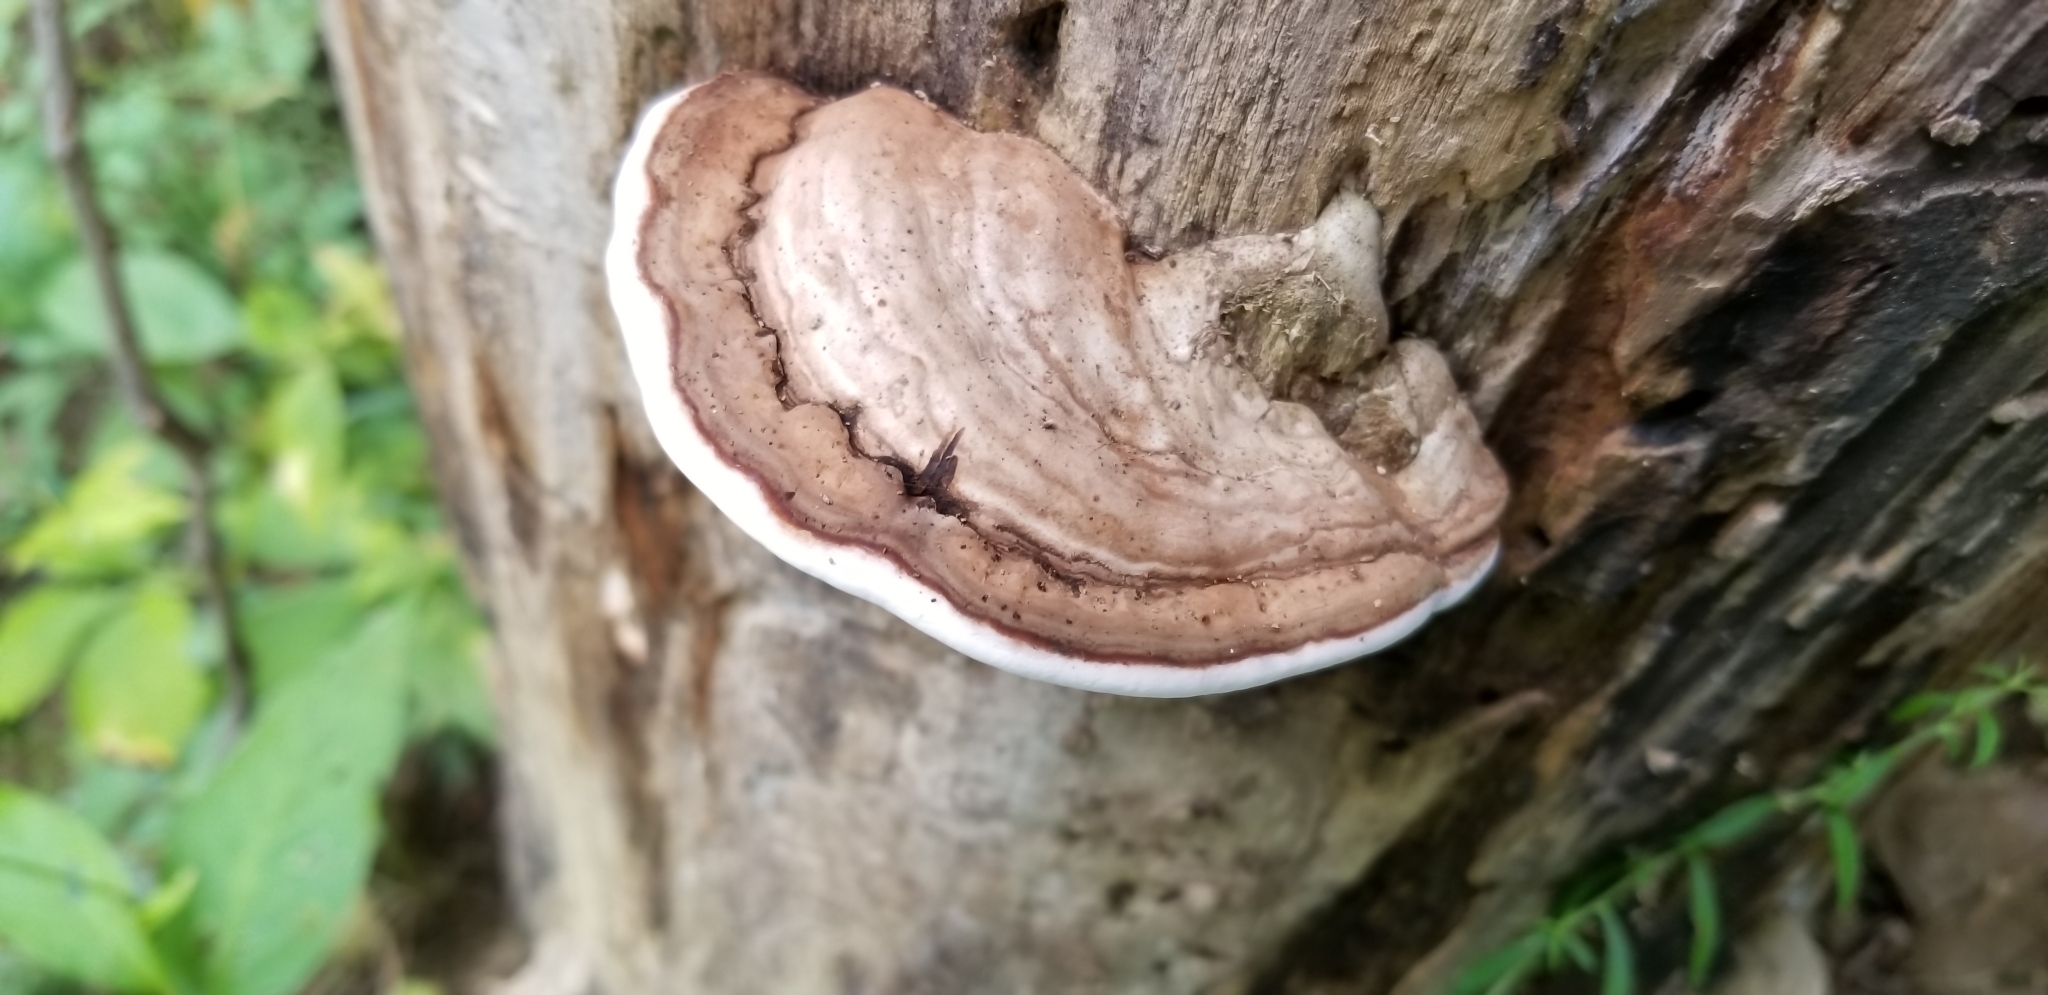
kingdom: Fungi
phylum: Basidiomycota
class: Agaricomycetes
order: Polyporales
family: Polyporaceae
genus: Ganoderma
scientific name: Ganoderma applanatum
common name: Artist's bracket
